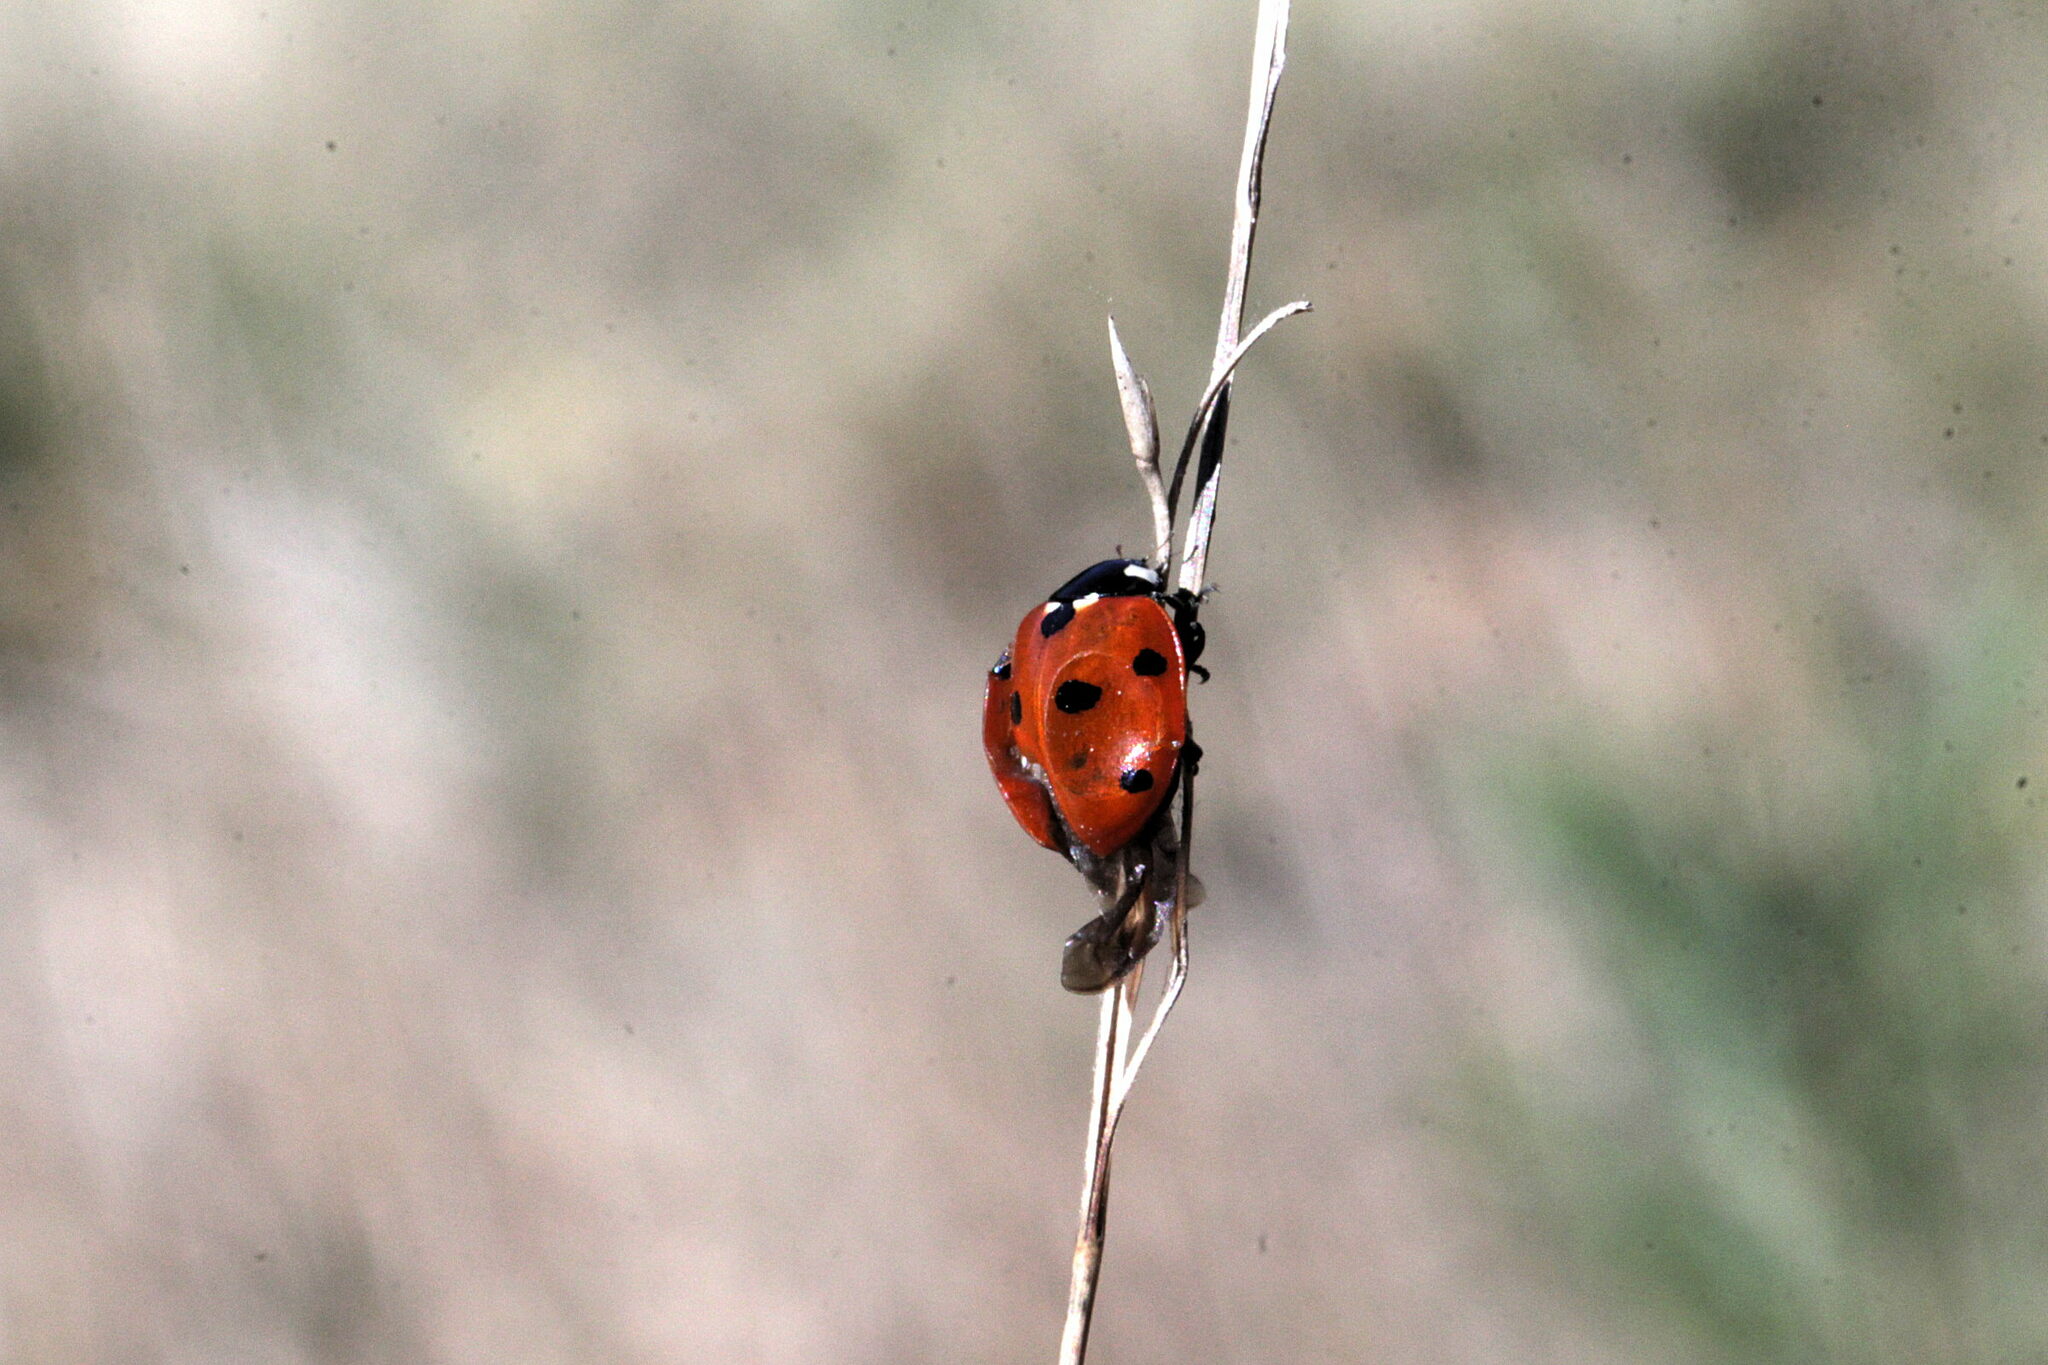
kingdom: Animalia
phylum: Arthropoda
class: Insecta
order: Coleoptera
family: Coccinellidae
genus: Coccinella
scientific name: Coccinella septempunctata
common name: Sevenspotted lady beetle
